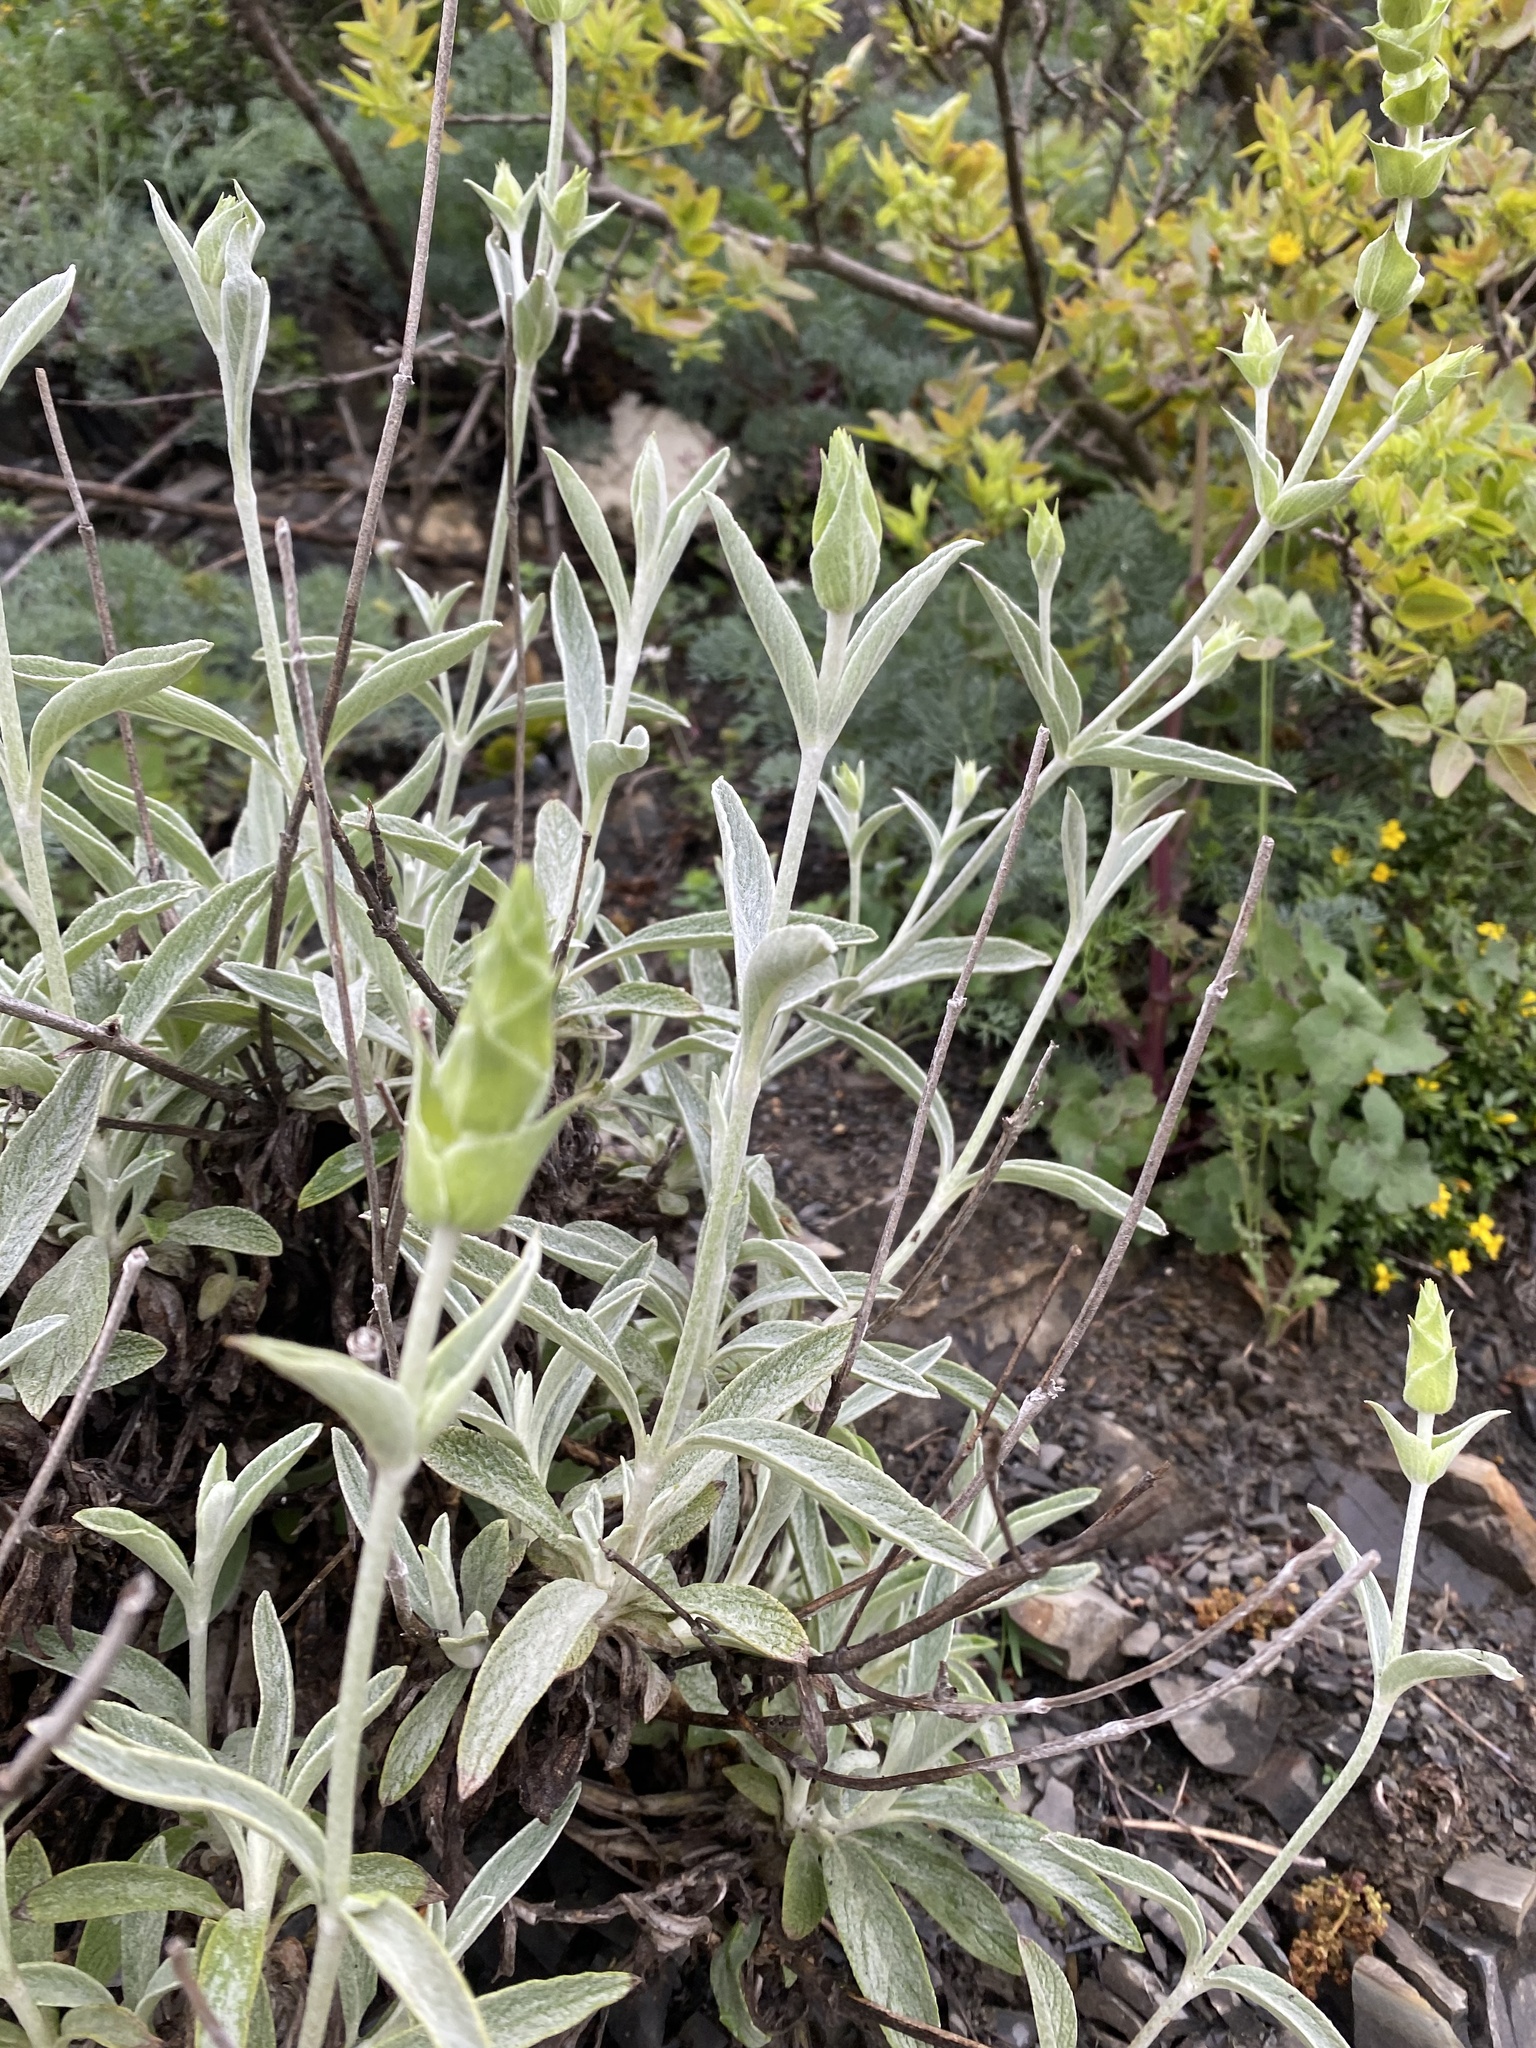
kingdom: Plantae
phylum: Tracheophyta
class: Magnoliopsida
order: Lamiales
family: Lamiaceae
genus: Sideritis
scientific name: Sideritis euxina
